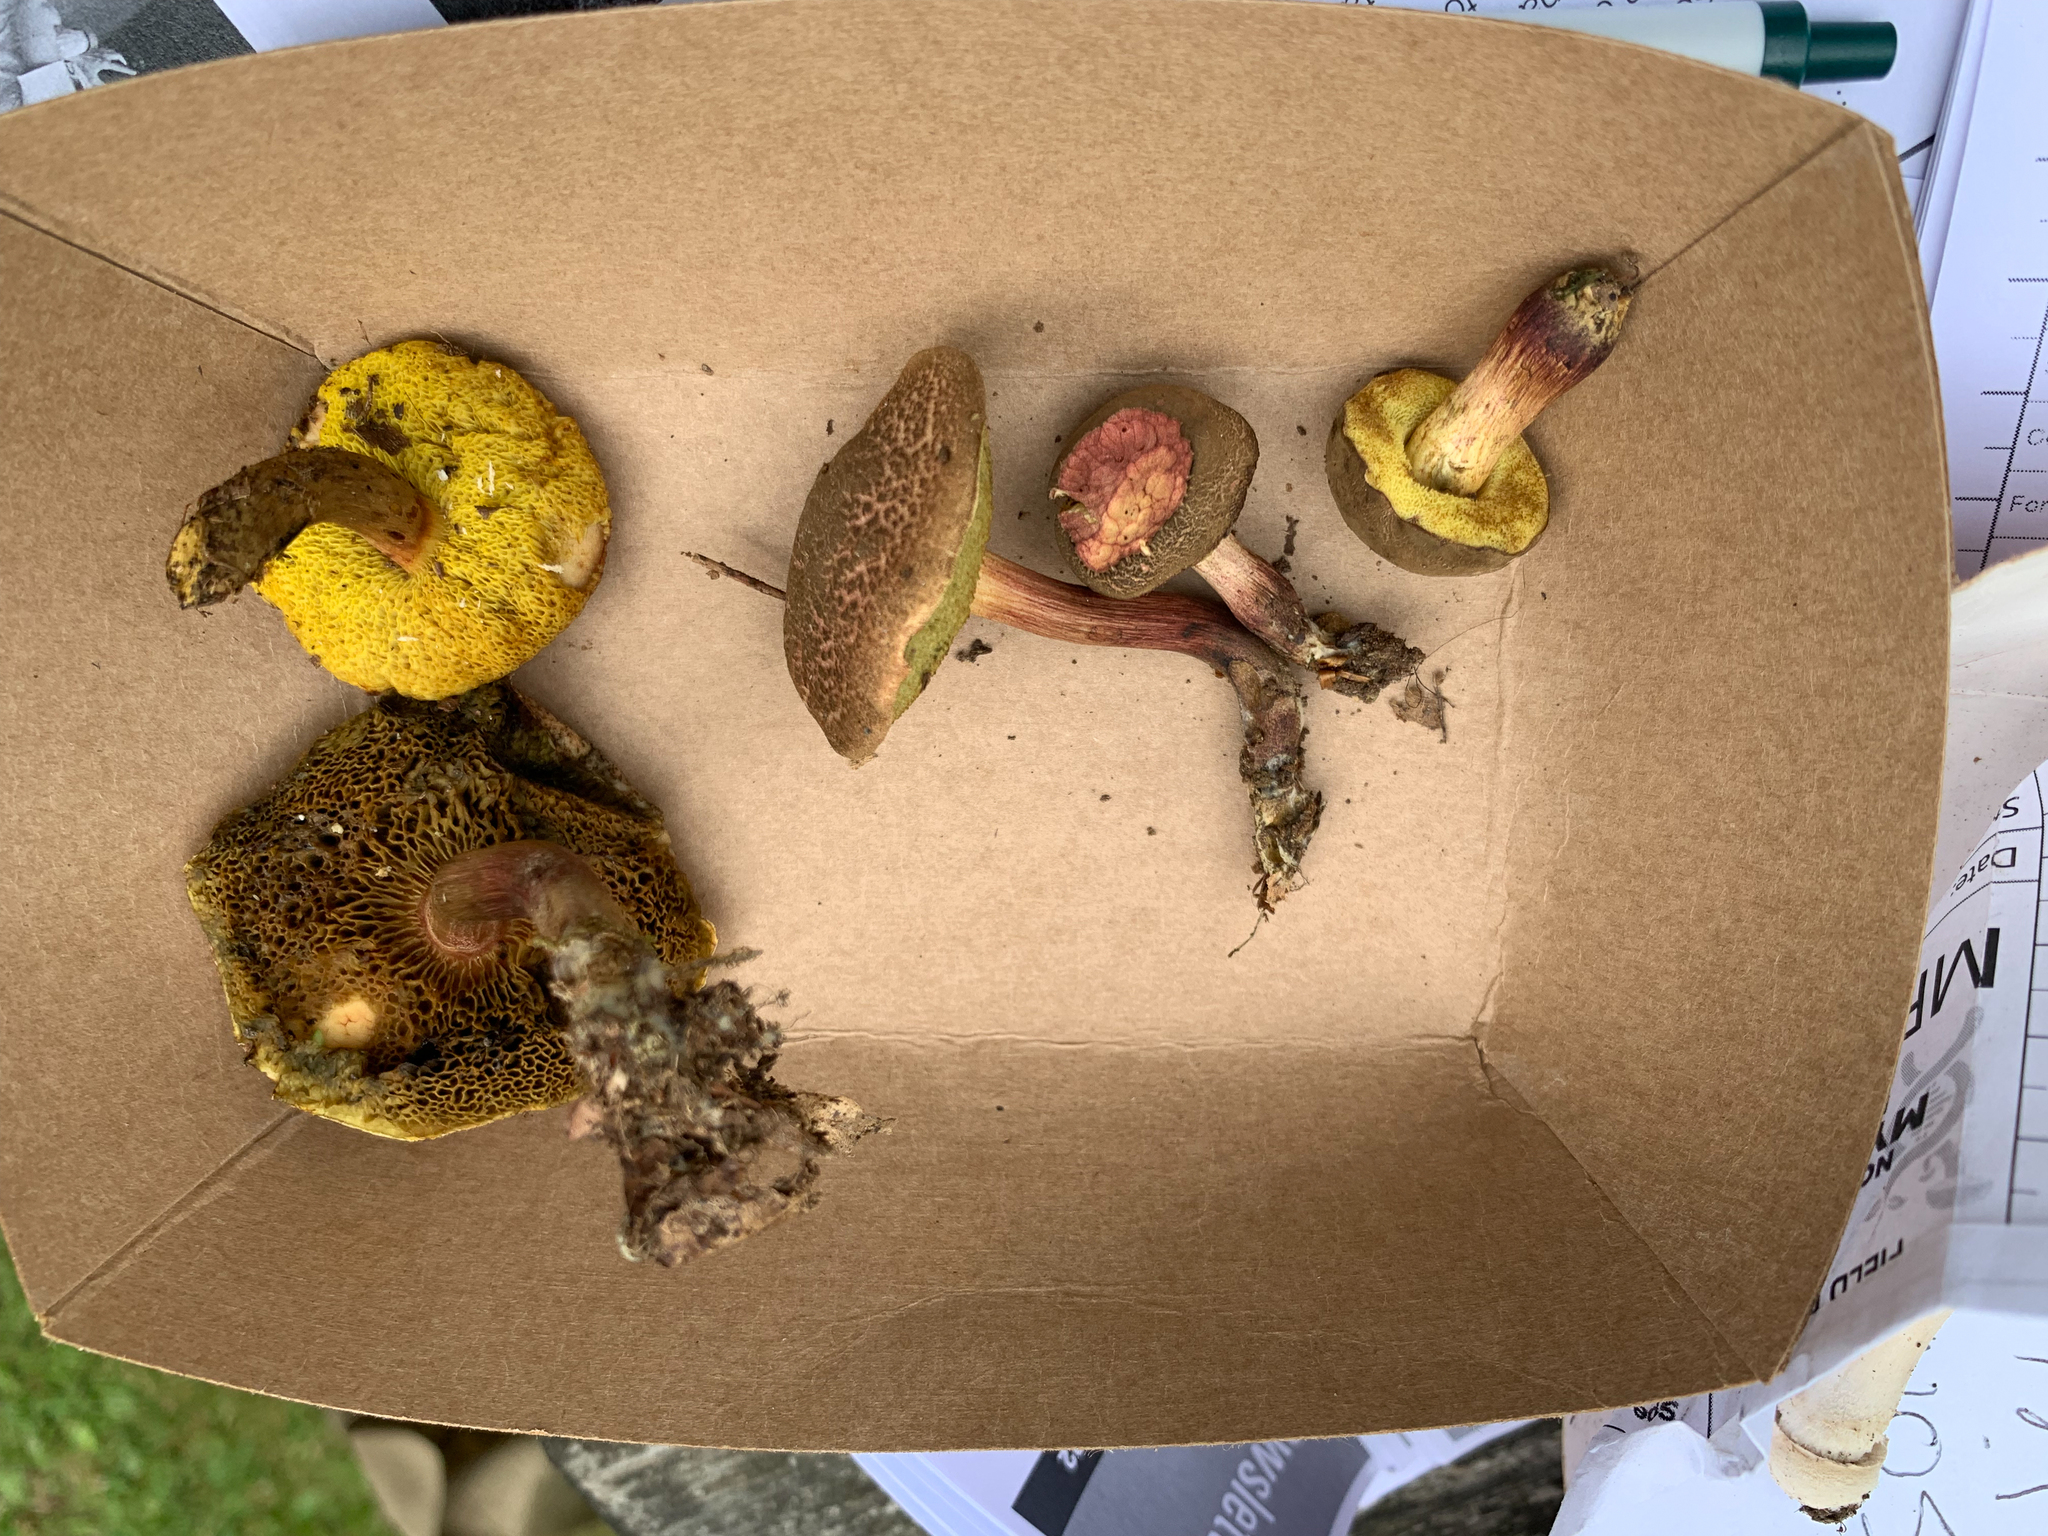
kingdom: Fungi
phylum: Basidiomycota
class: Agaricomycetes
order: Boletales
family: Boletaceae
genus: Xerocomellus
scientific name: Xerocomellus chrysenteron
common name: Red-cracking bolete
